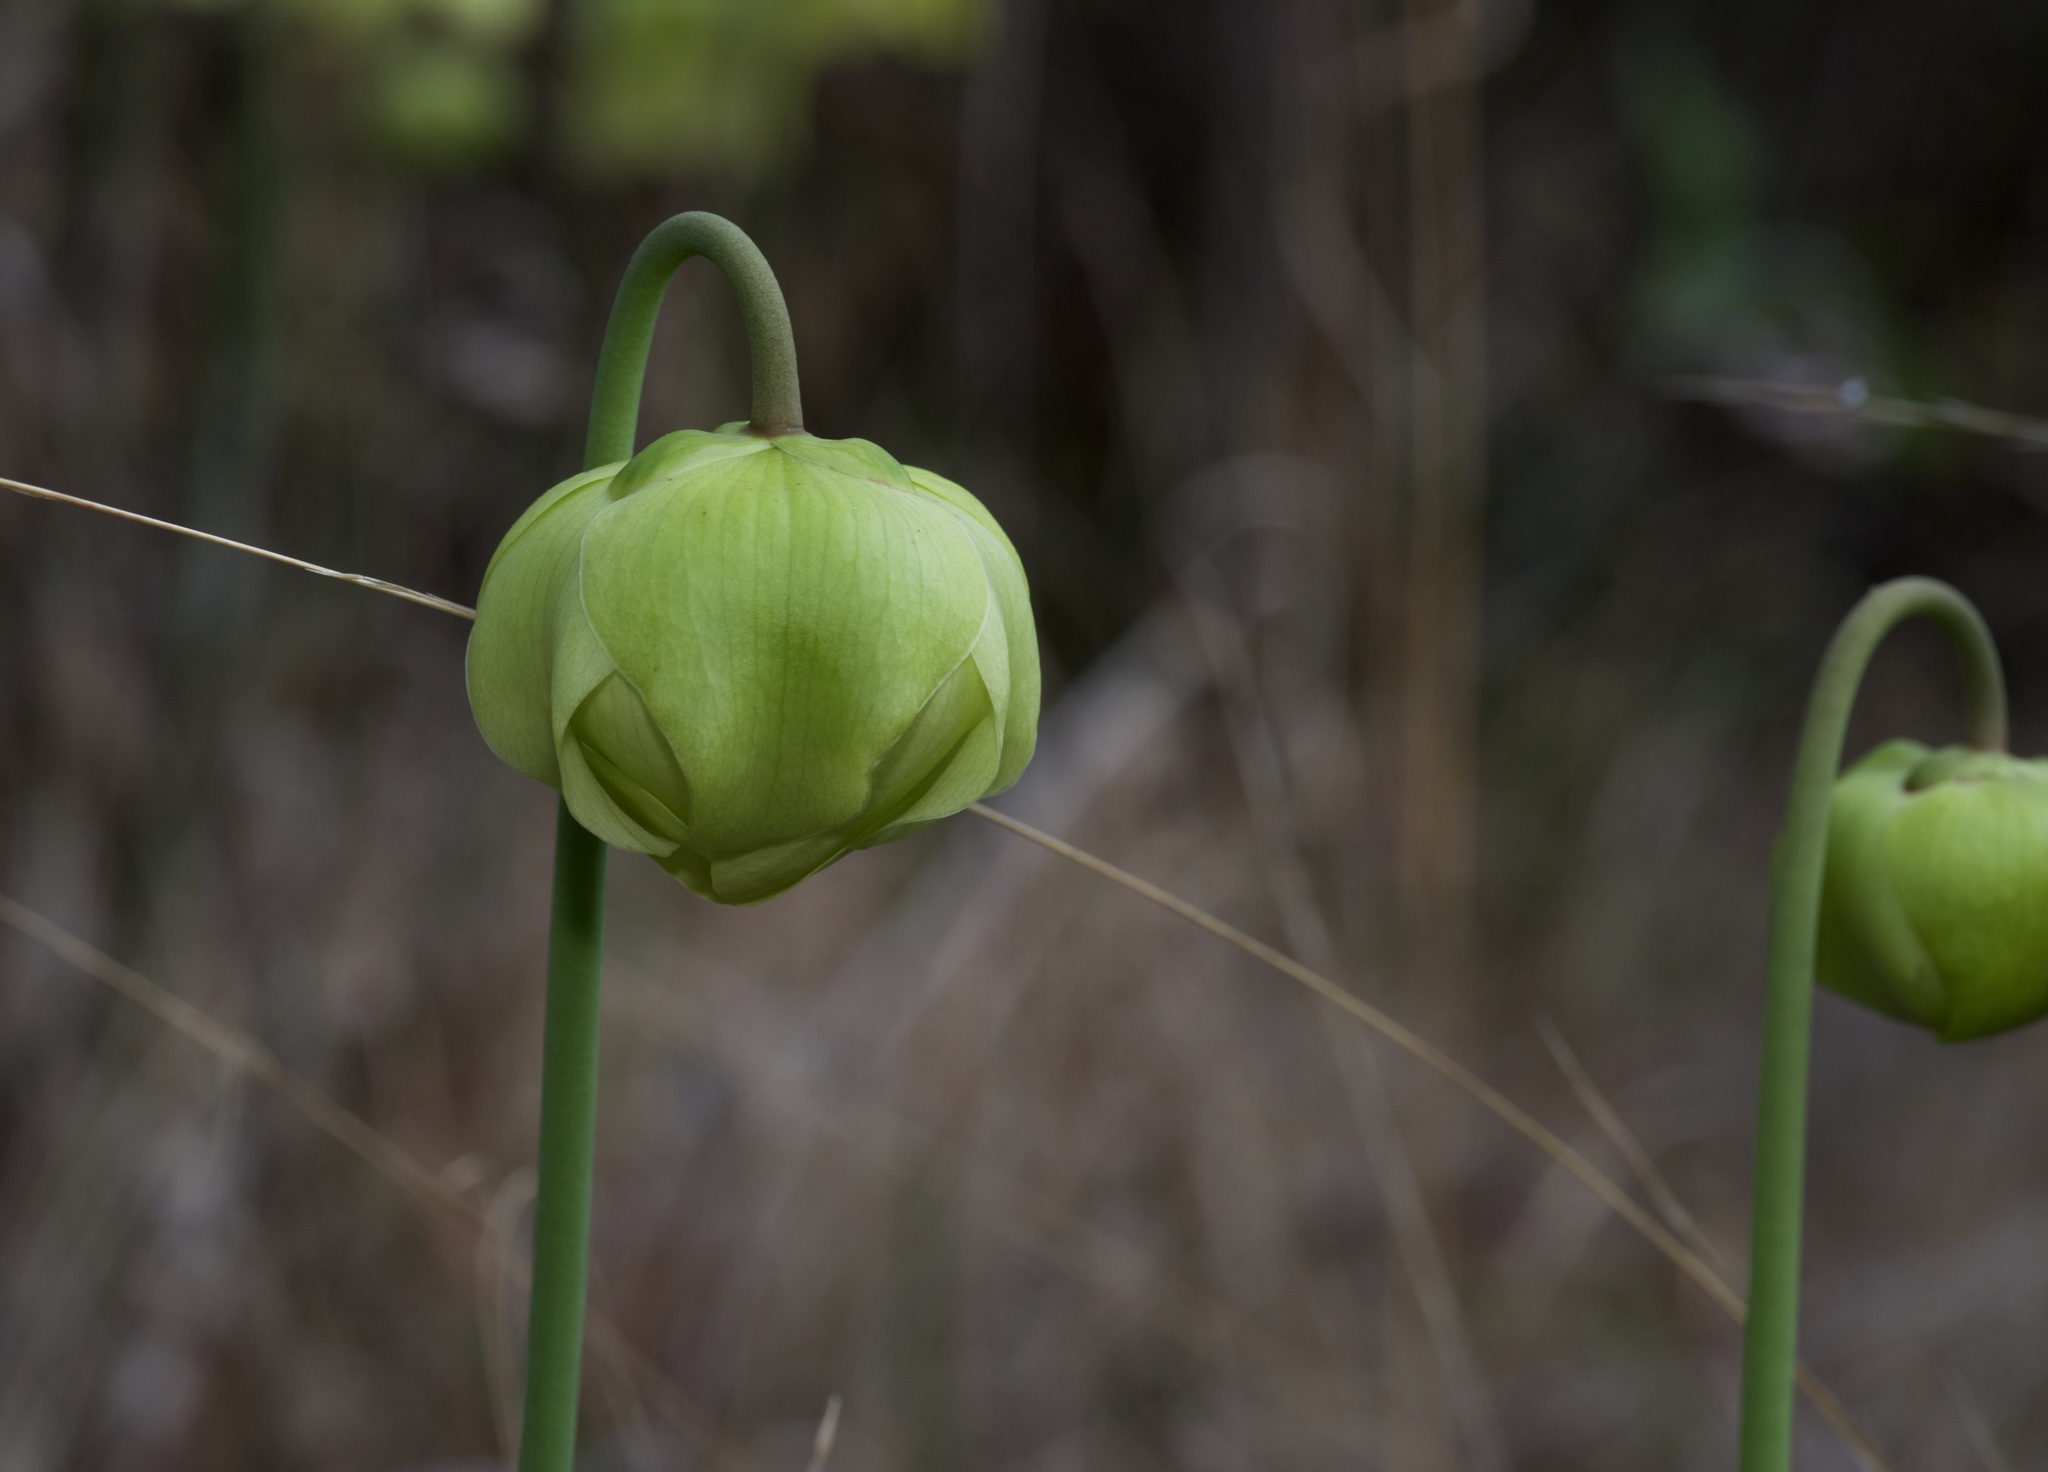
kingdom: Plantae
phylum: Tracheophyta
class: Magnoliopsida
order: Ericales
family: Sarraceniaceae
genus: Sarracenia
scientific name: Sarracenia alata
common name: Yellow trumpets
